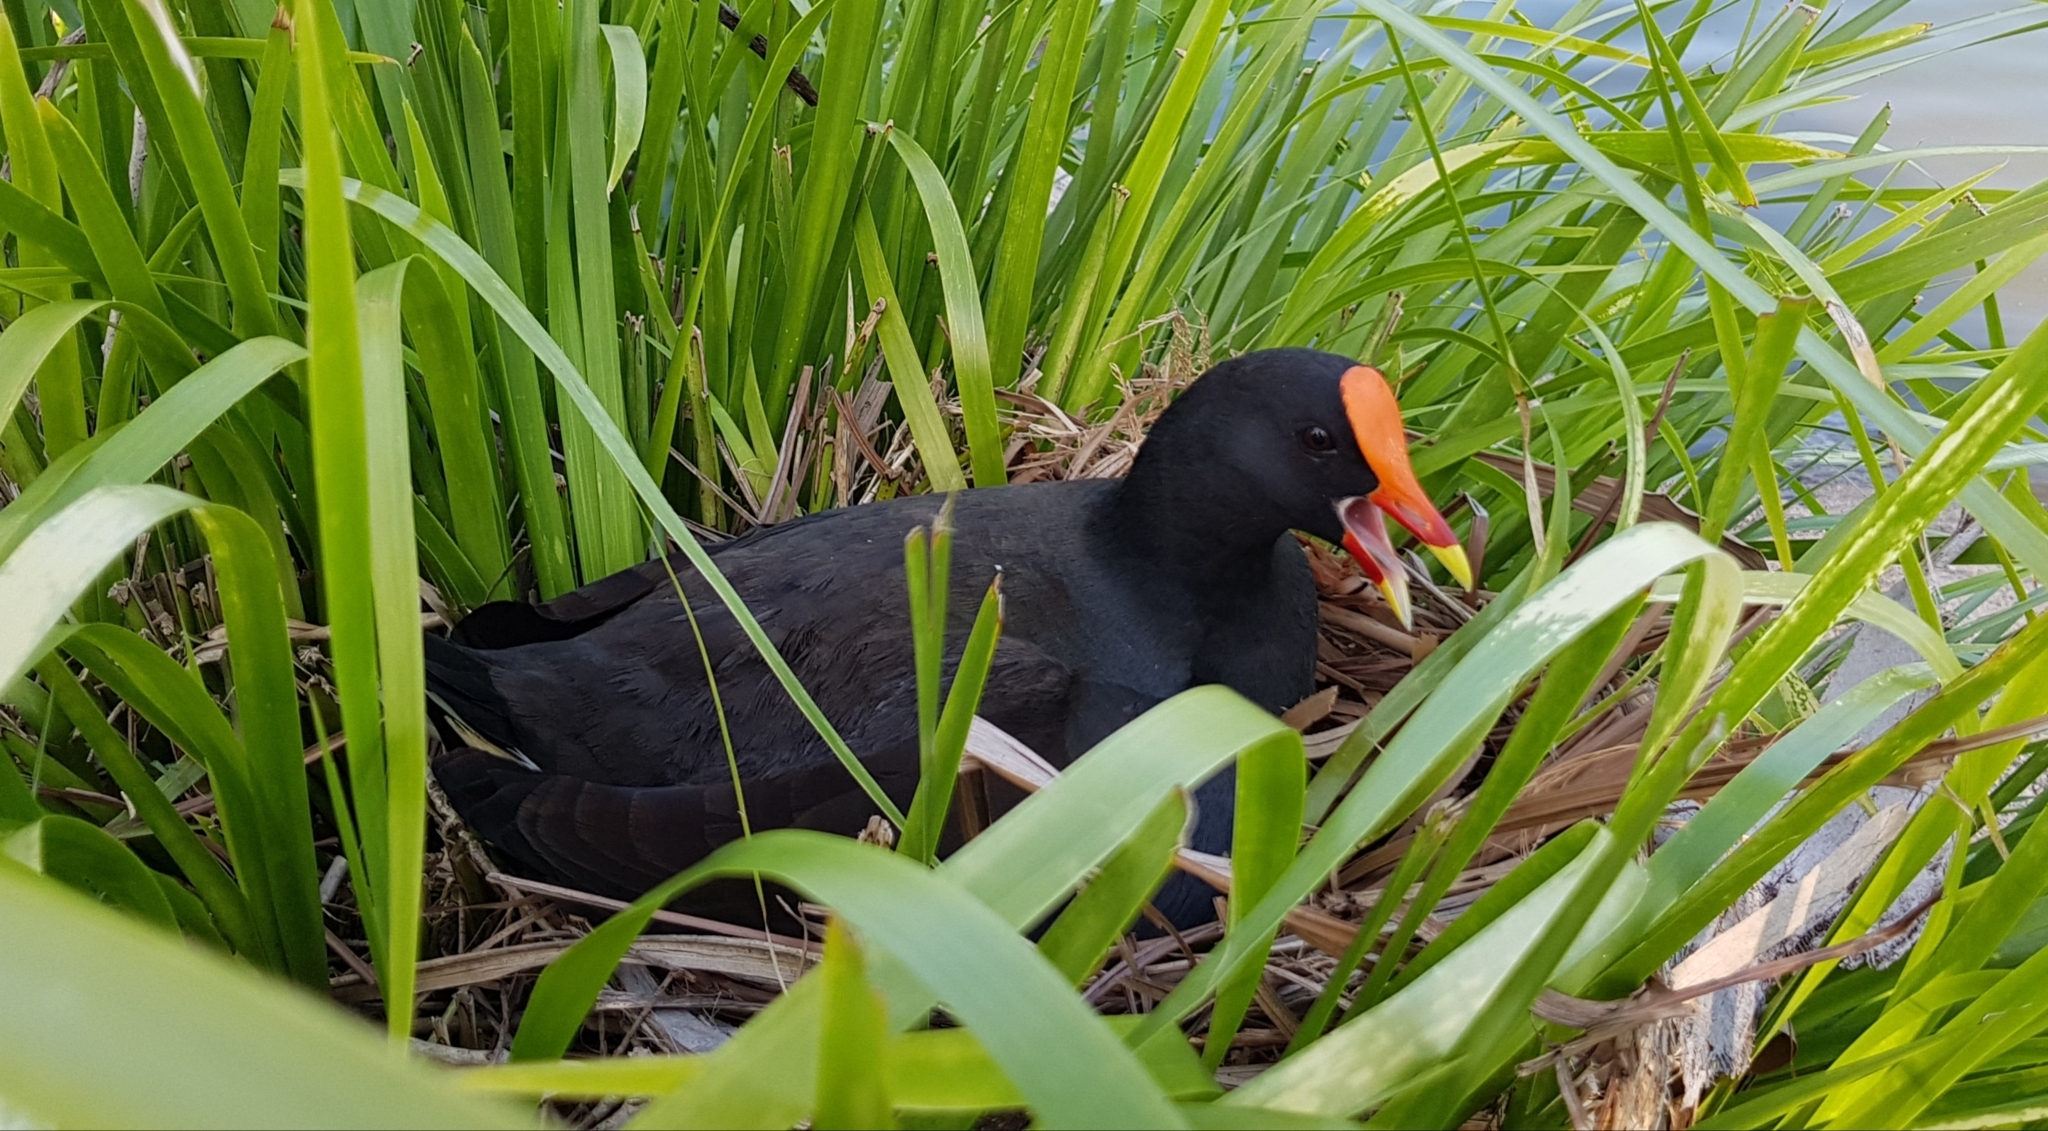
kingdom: Animalia
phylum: Chordata
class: Aves
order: Gruiformes
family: Rallidae
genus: Gallinula
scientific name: Gallinula tenebrosa
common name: Dusky moorhen
